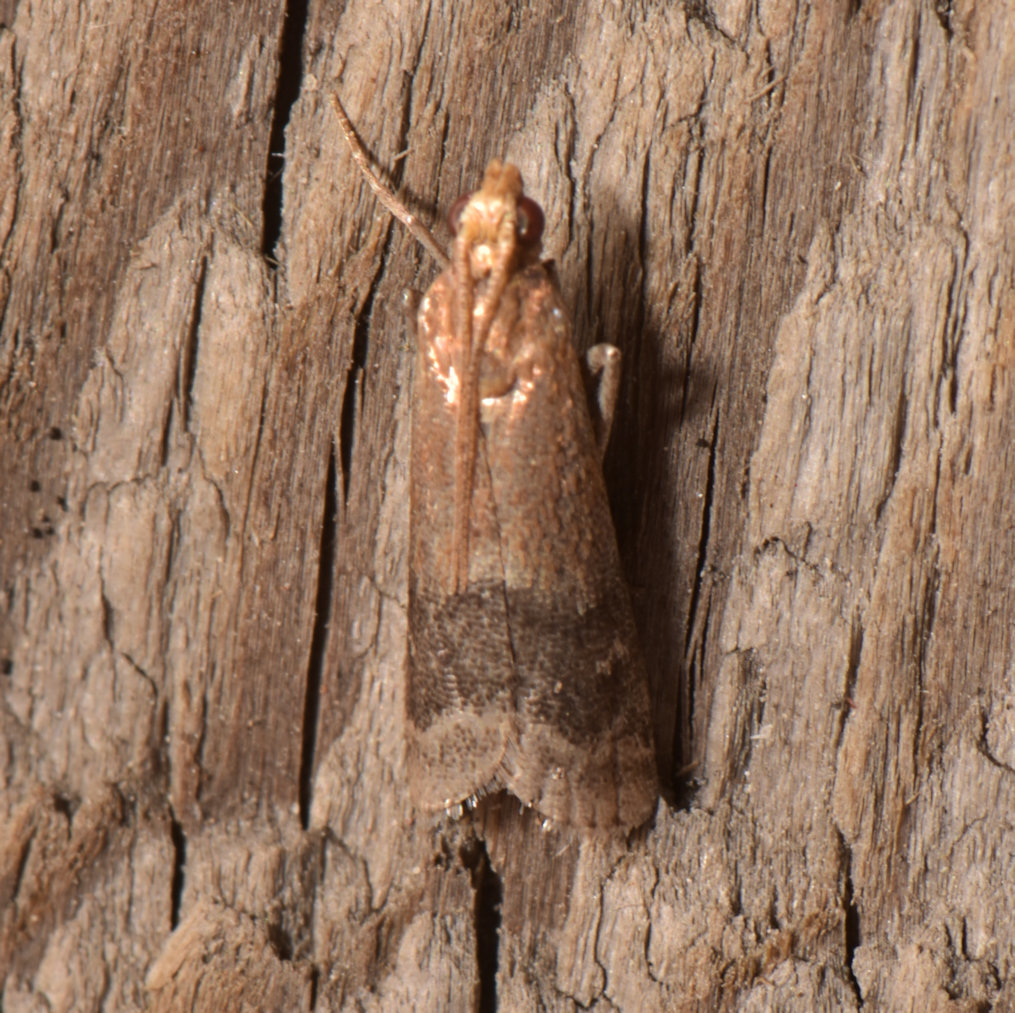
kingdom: Animalia
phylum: Arthropoda
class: Insecta
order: Lepidoptera
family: Pyralidae
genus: Eulogia
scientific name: Eulogia ochrifrontella
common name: Broad-banded eulogia moth
